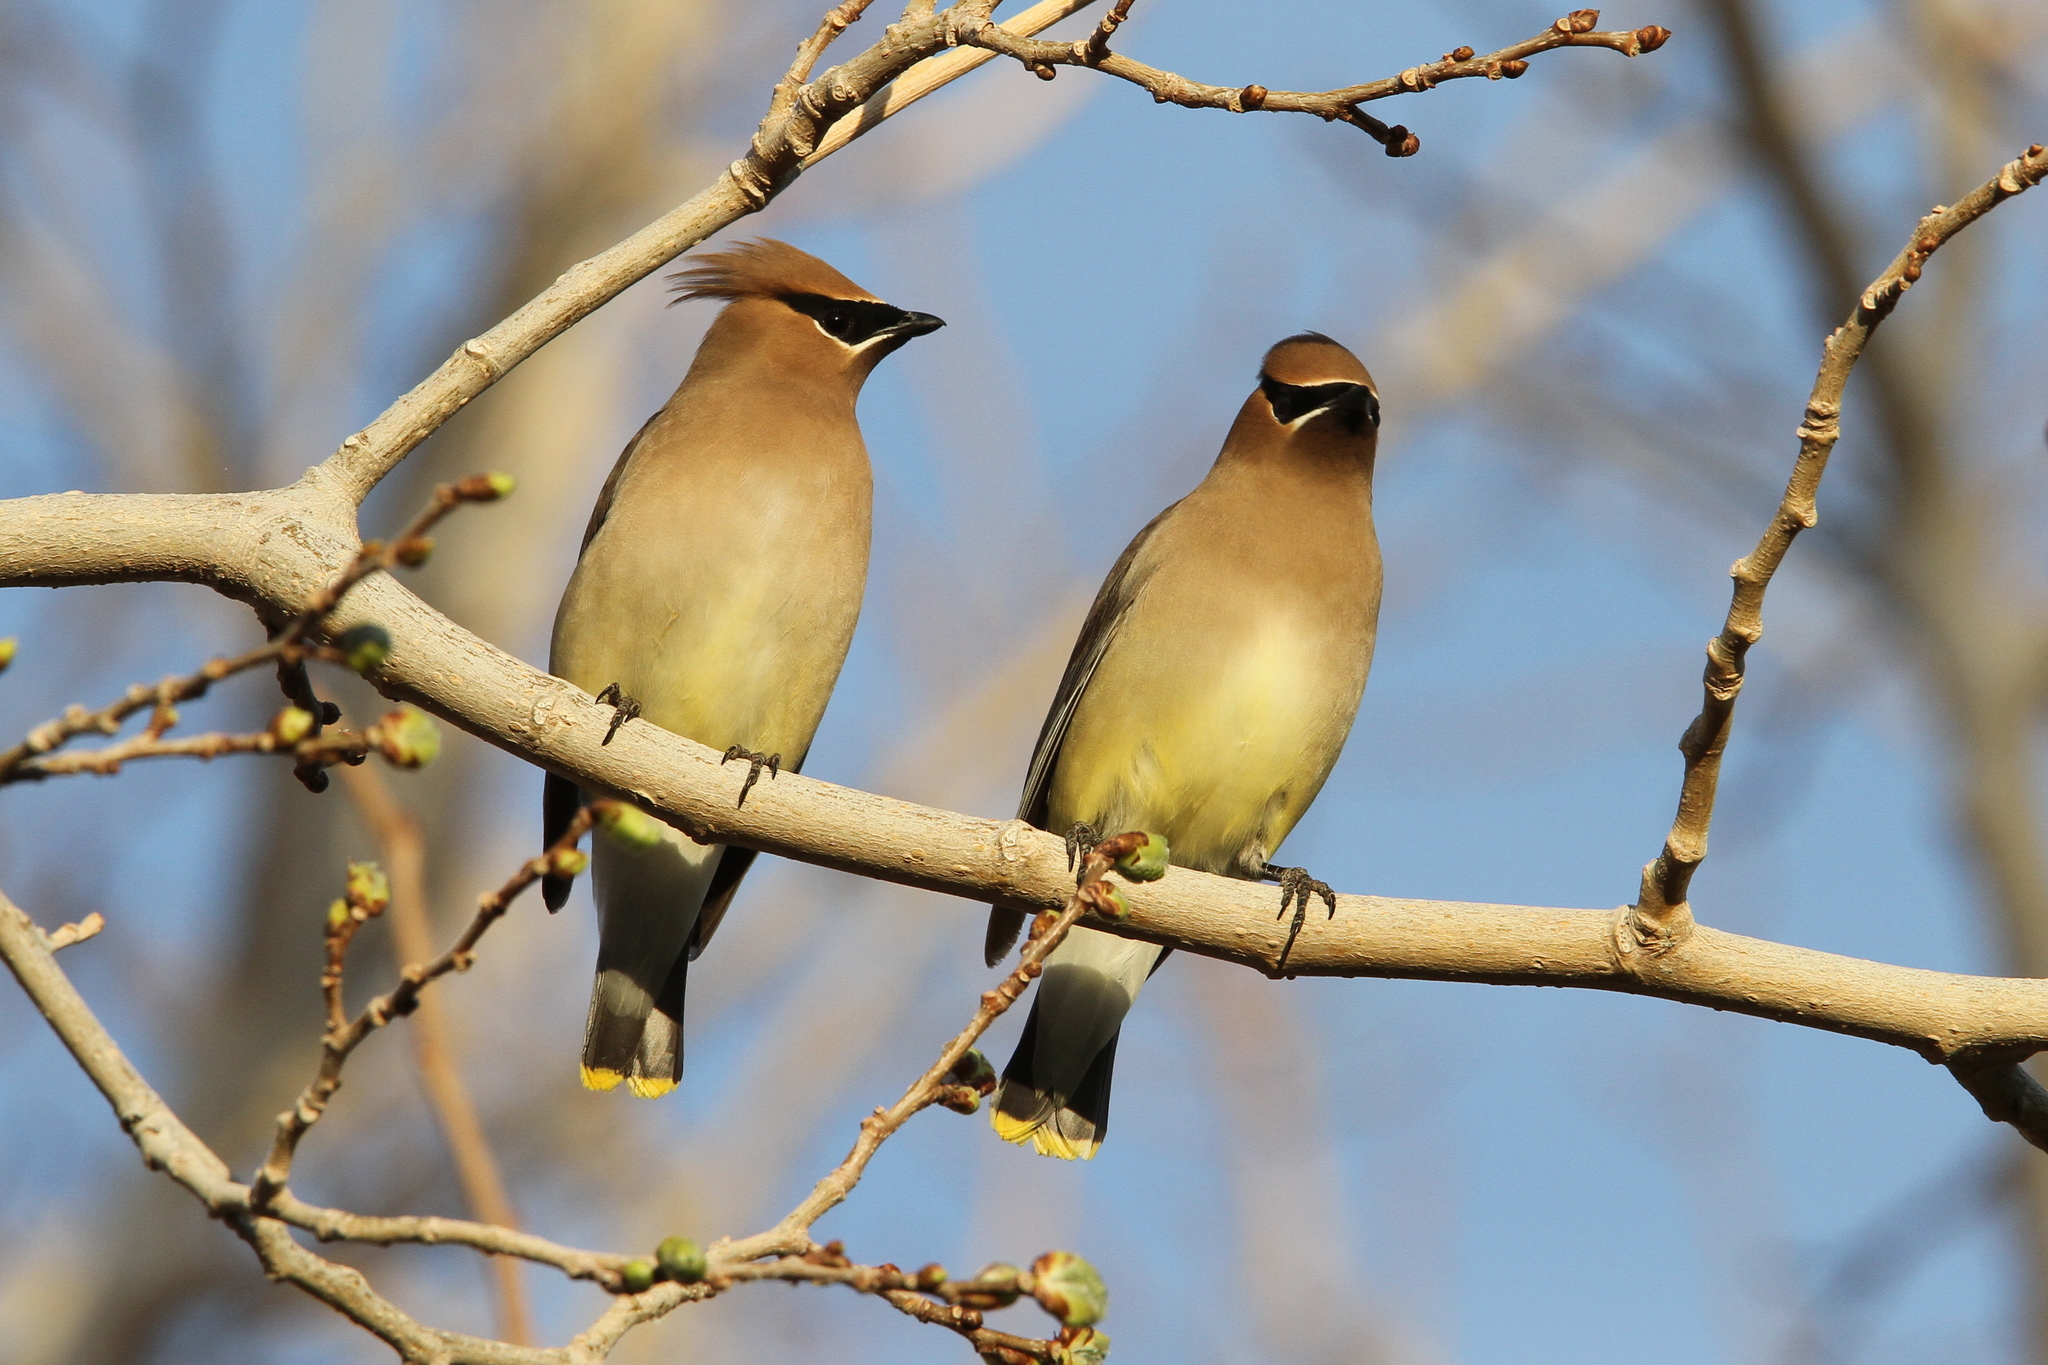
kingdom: Animalia
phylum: Chordata
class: Aves
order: Passeriformes
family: Bombycillidae
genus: Bombycilla
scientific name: Bombycilla cedrorum
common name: Cedar waxwing
